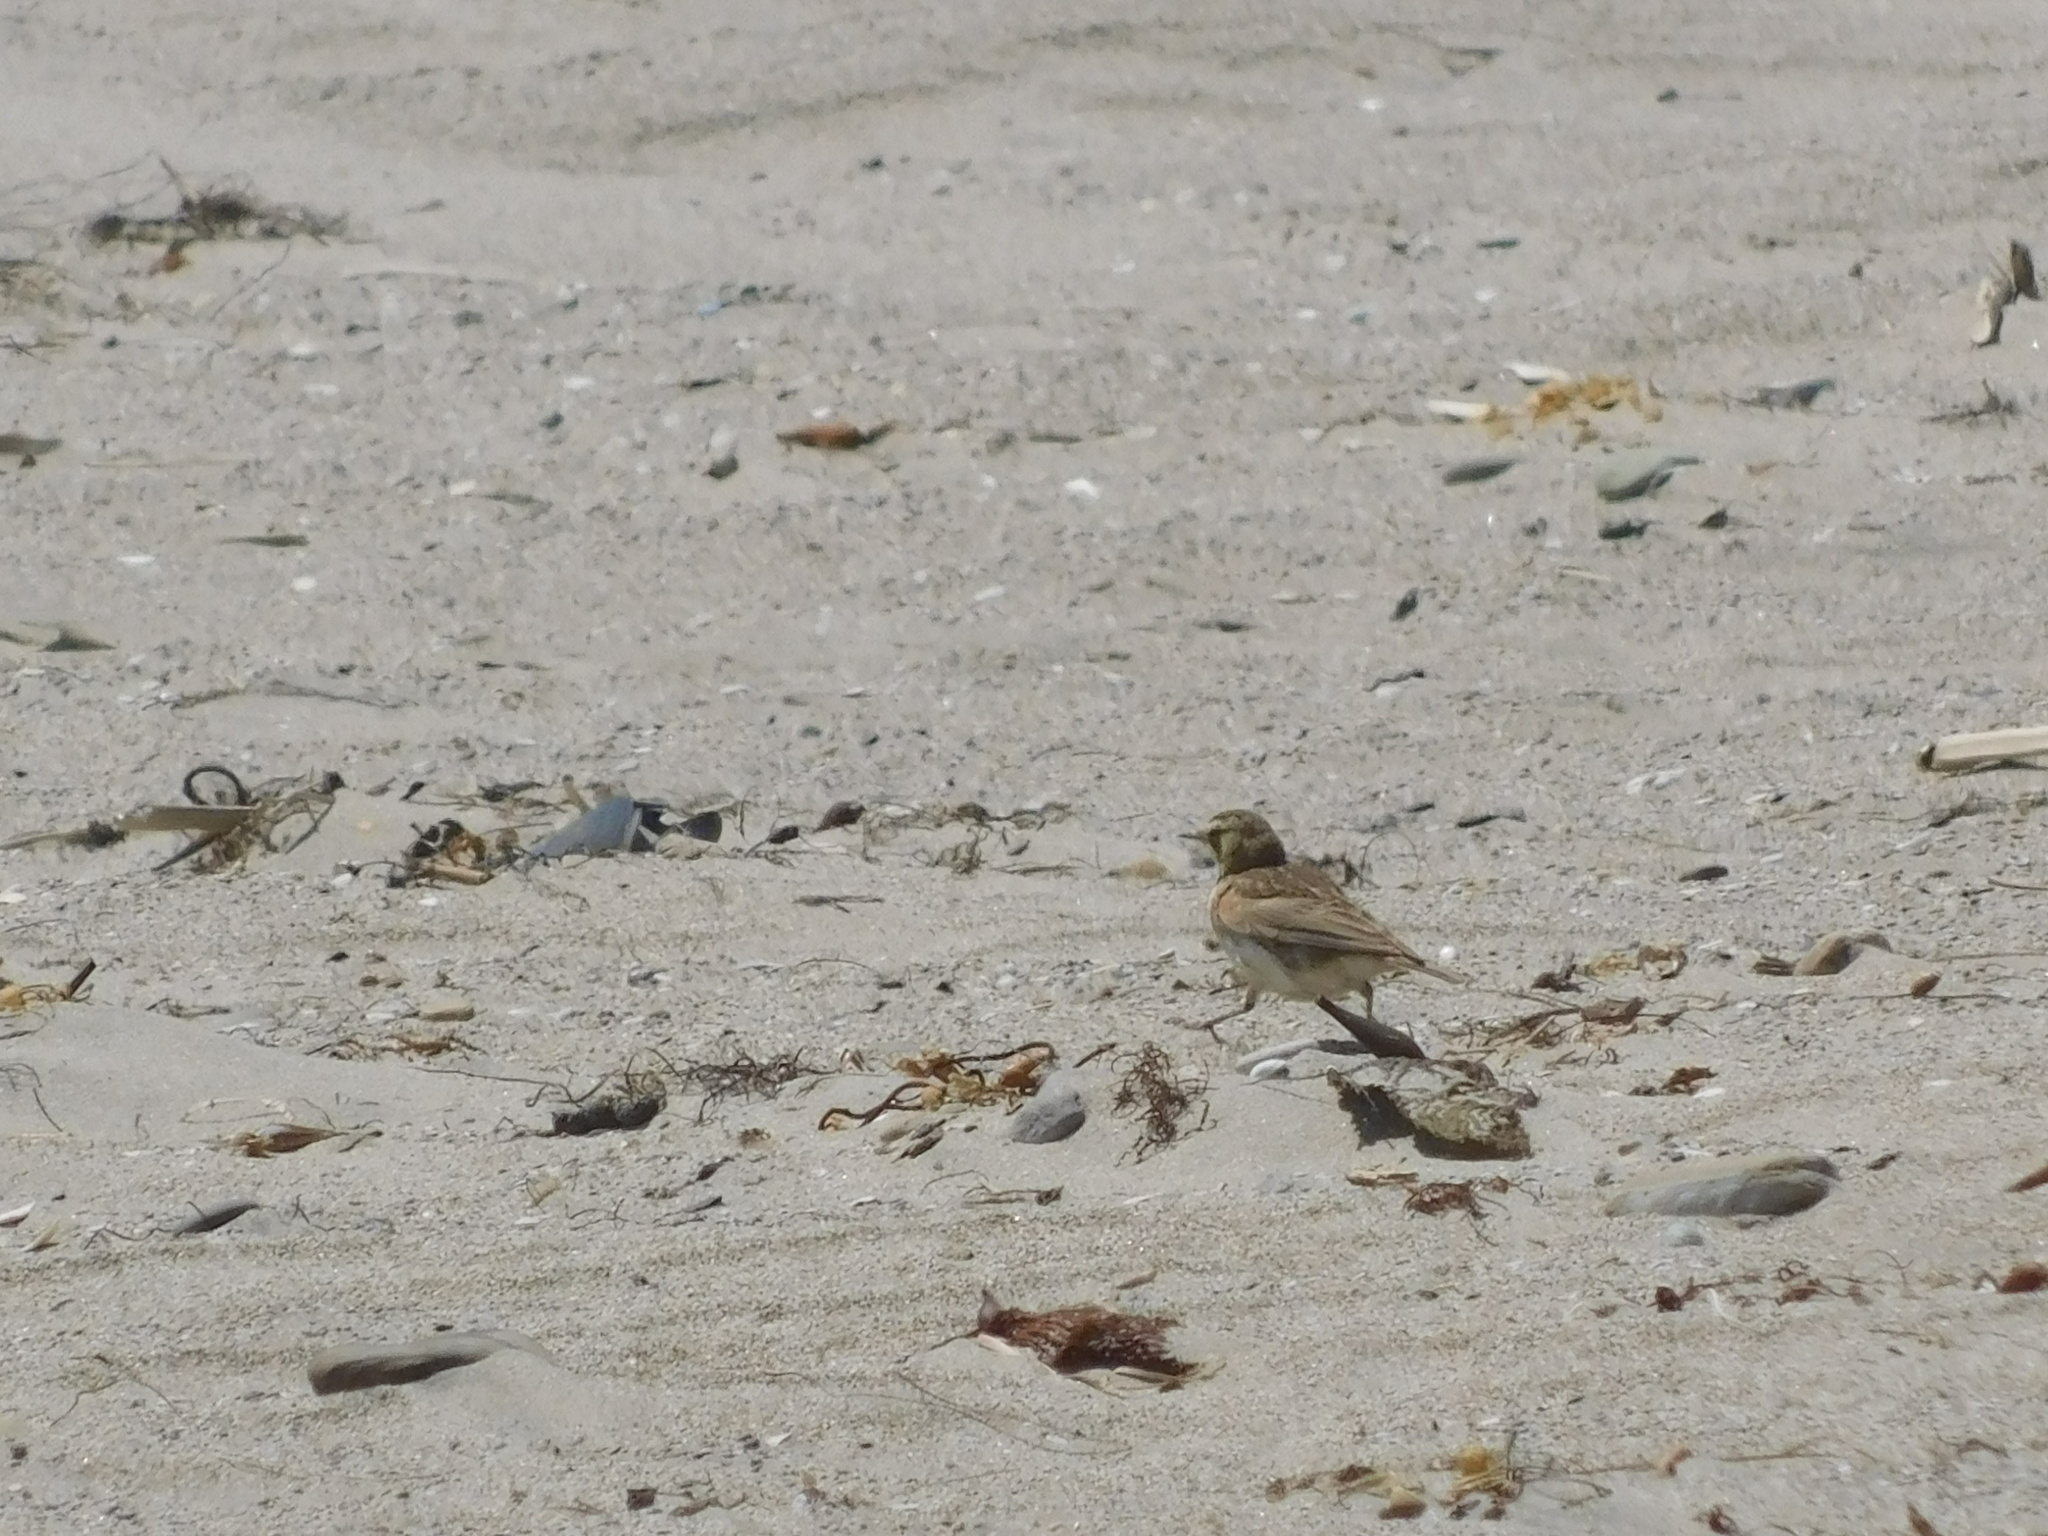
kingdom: Animalia
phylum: Chordata
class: Aves
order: Passeriformes
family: Alaudidae
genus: Eremophila
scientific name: Eremophila alpestris
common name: Horned lark
